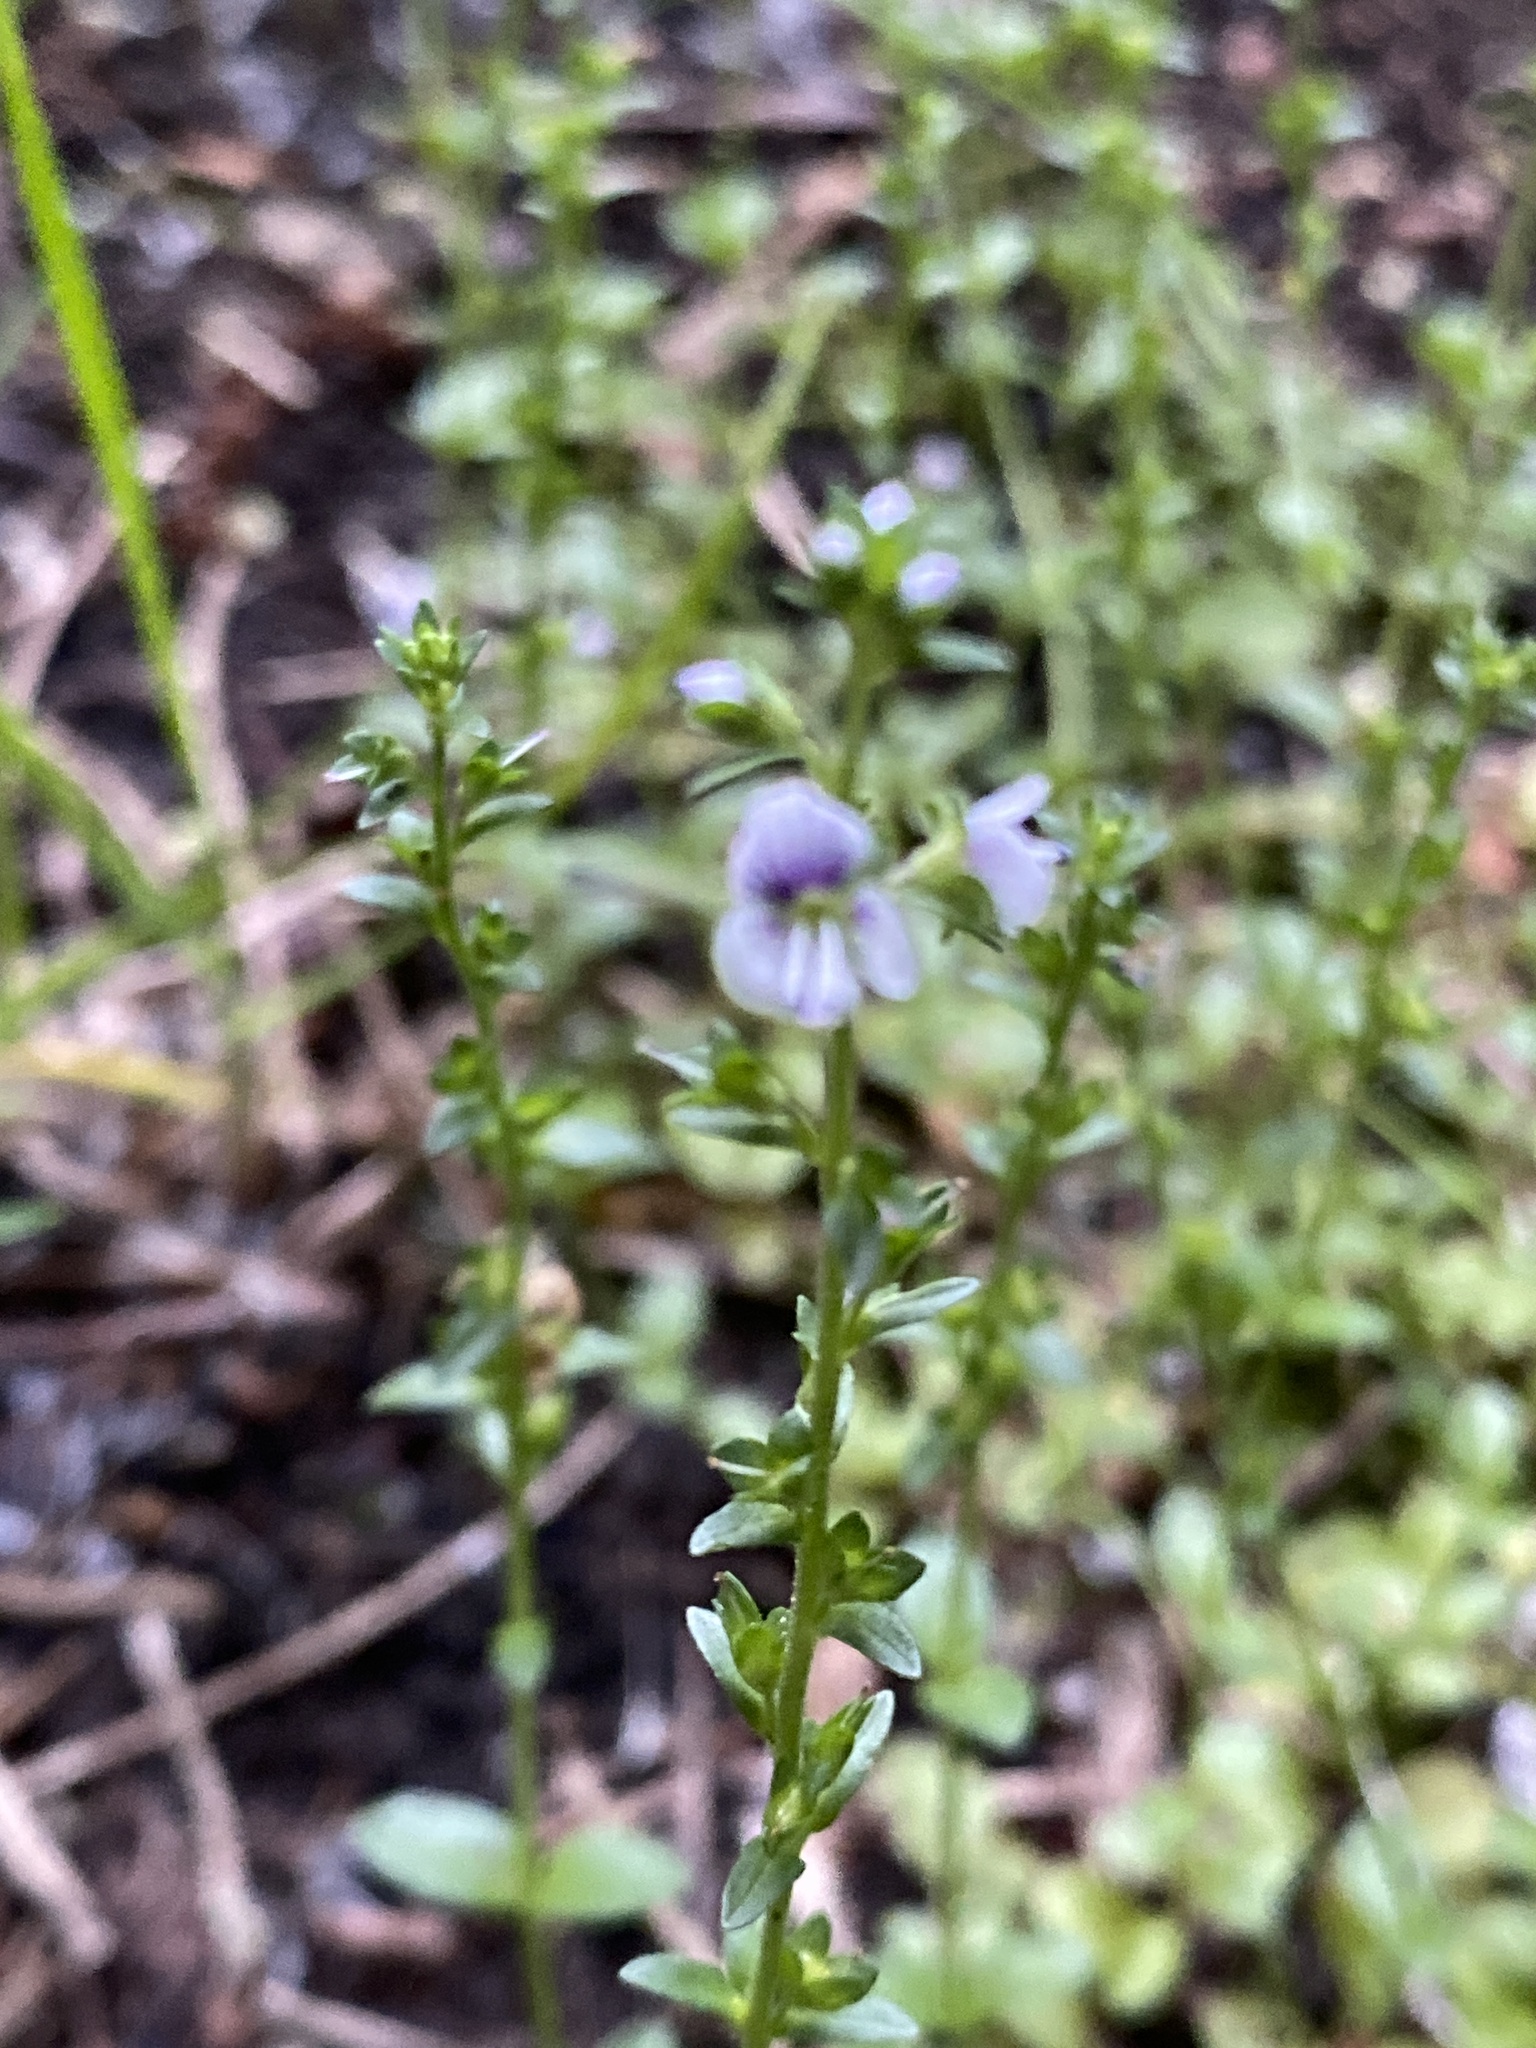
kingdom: Plantae
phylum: Tracheophyta
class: Magnoliopsida
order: Lamiales
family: Plantaginaceae
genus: Veronica
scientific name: Veronica serpyllifolia
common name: Thyme-leaved speedwell
